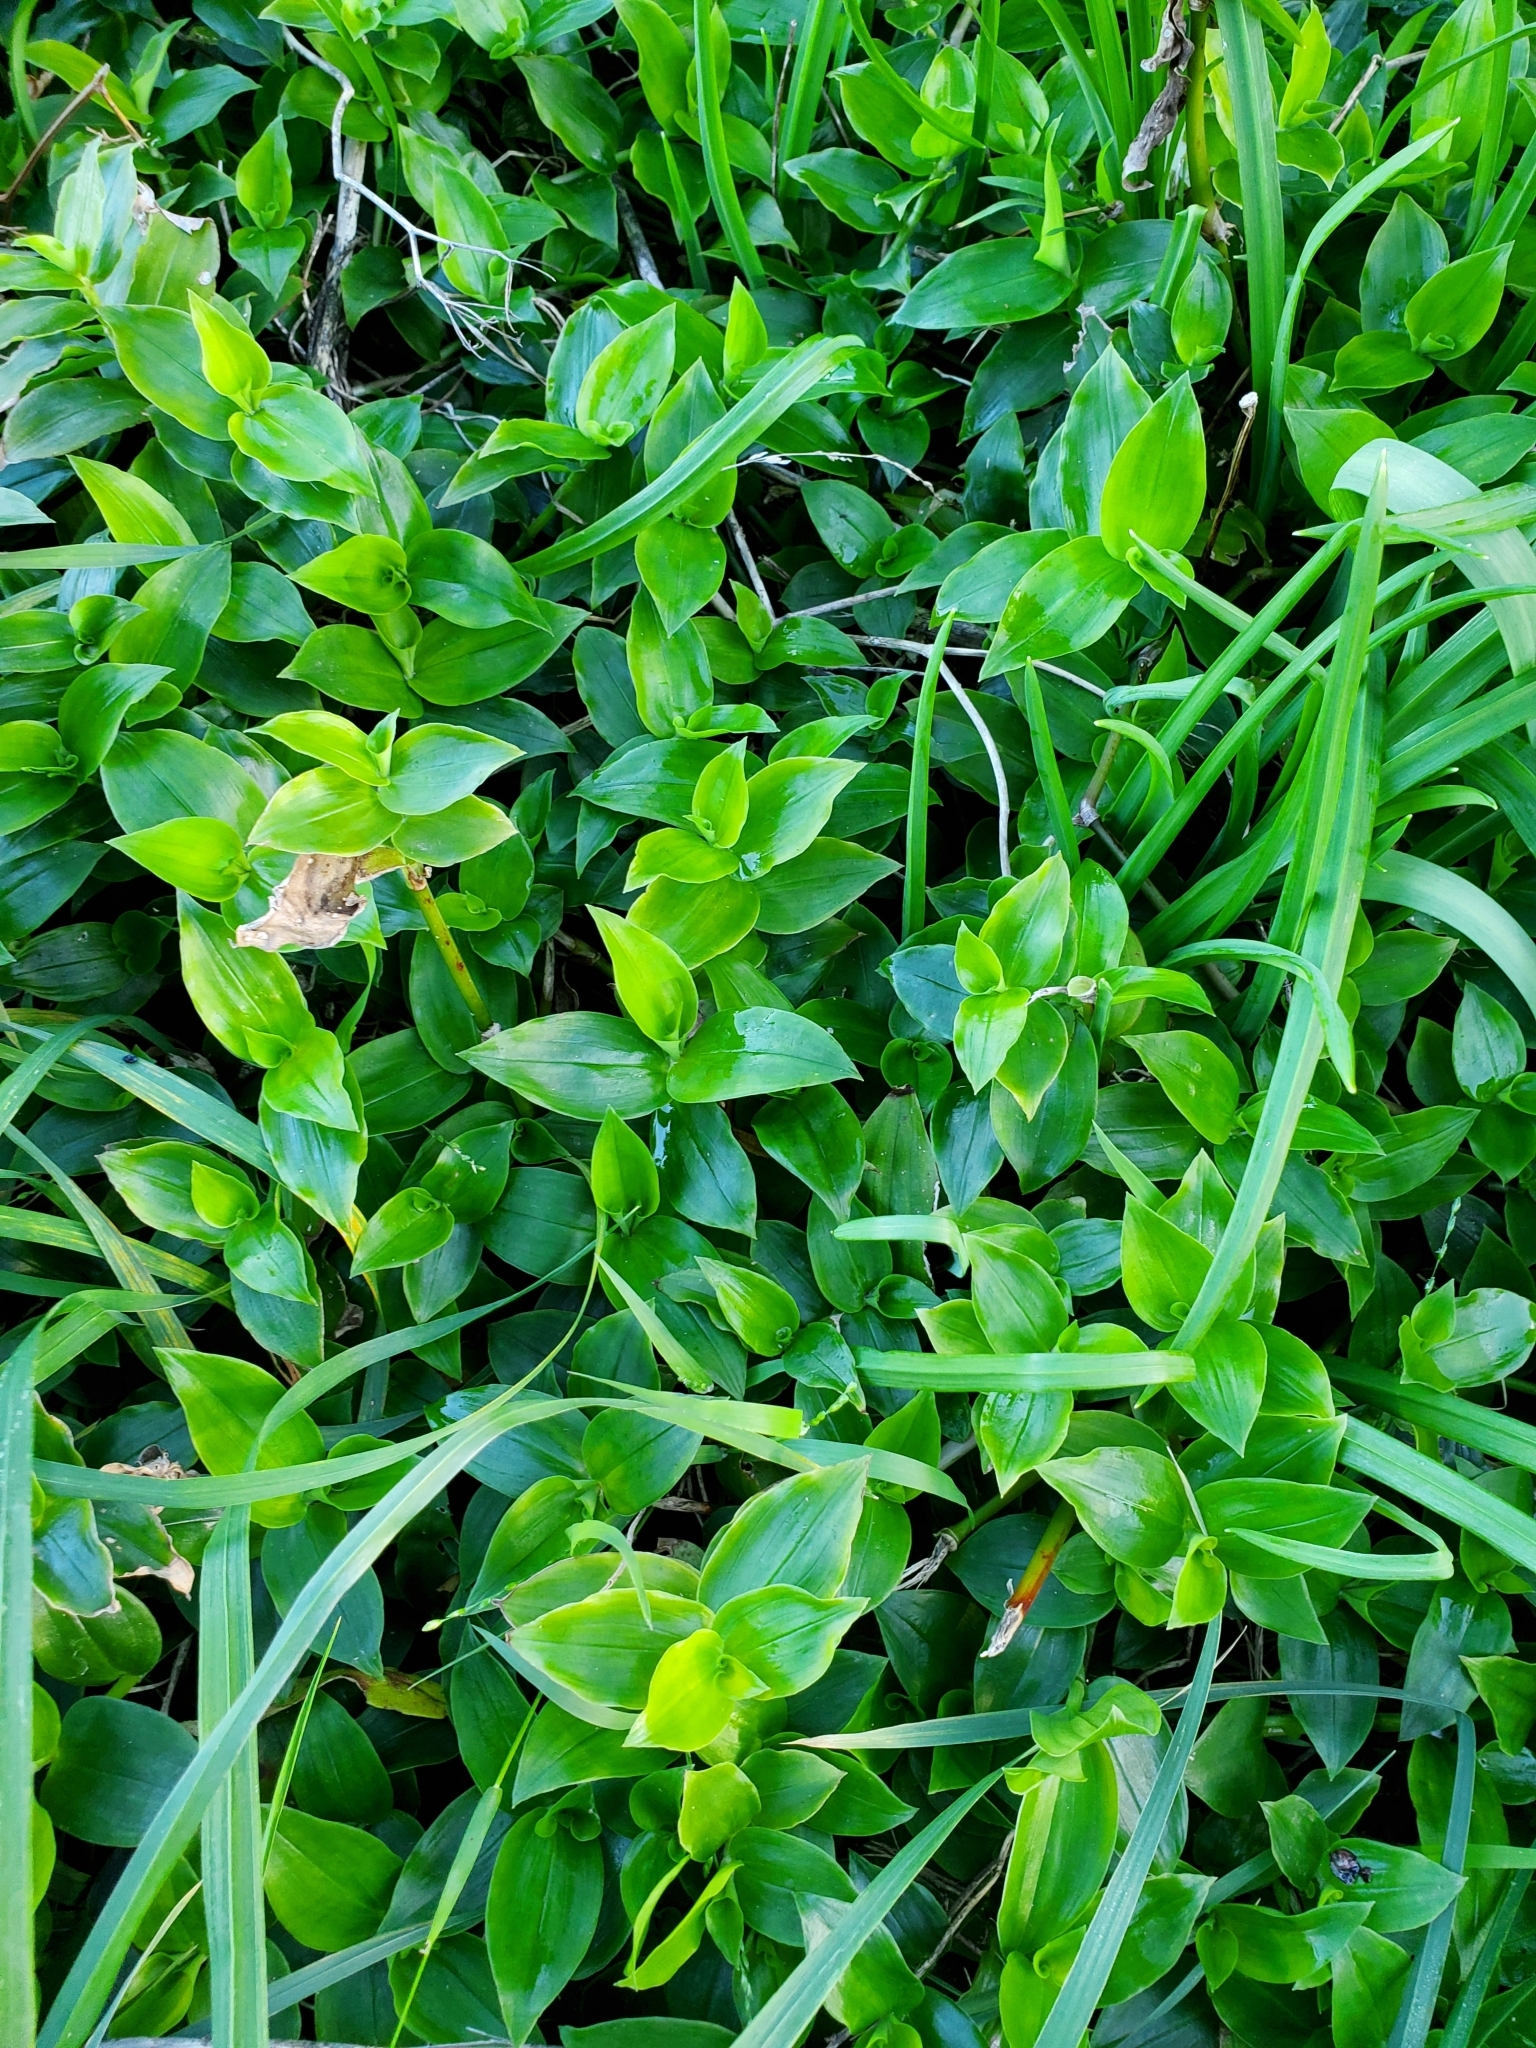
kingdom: Plantae
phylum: Tracheophyta
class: Liliopsida
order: Commelinales
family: Commelinaceae
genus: Tradescantia
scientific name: Tradescantia fluminensis
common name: Wandering-jew
